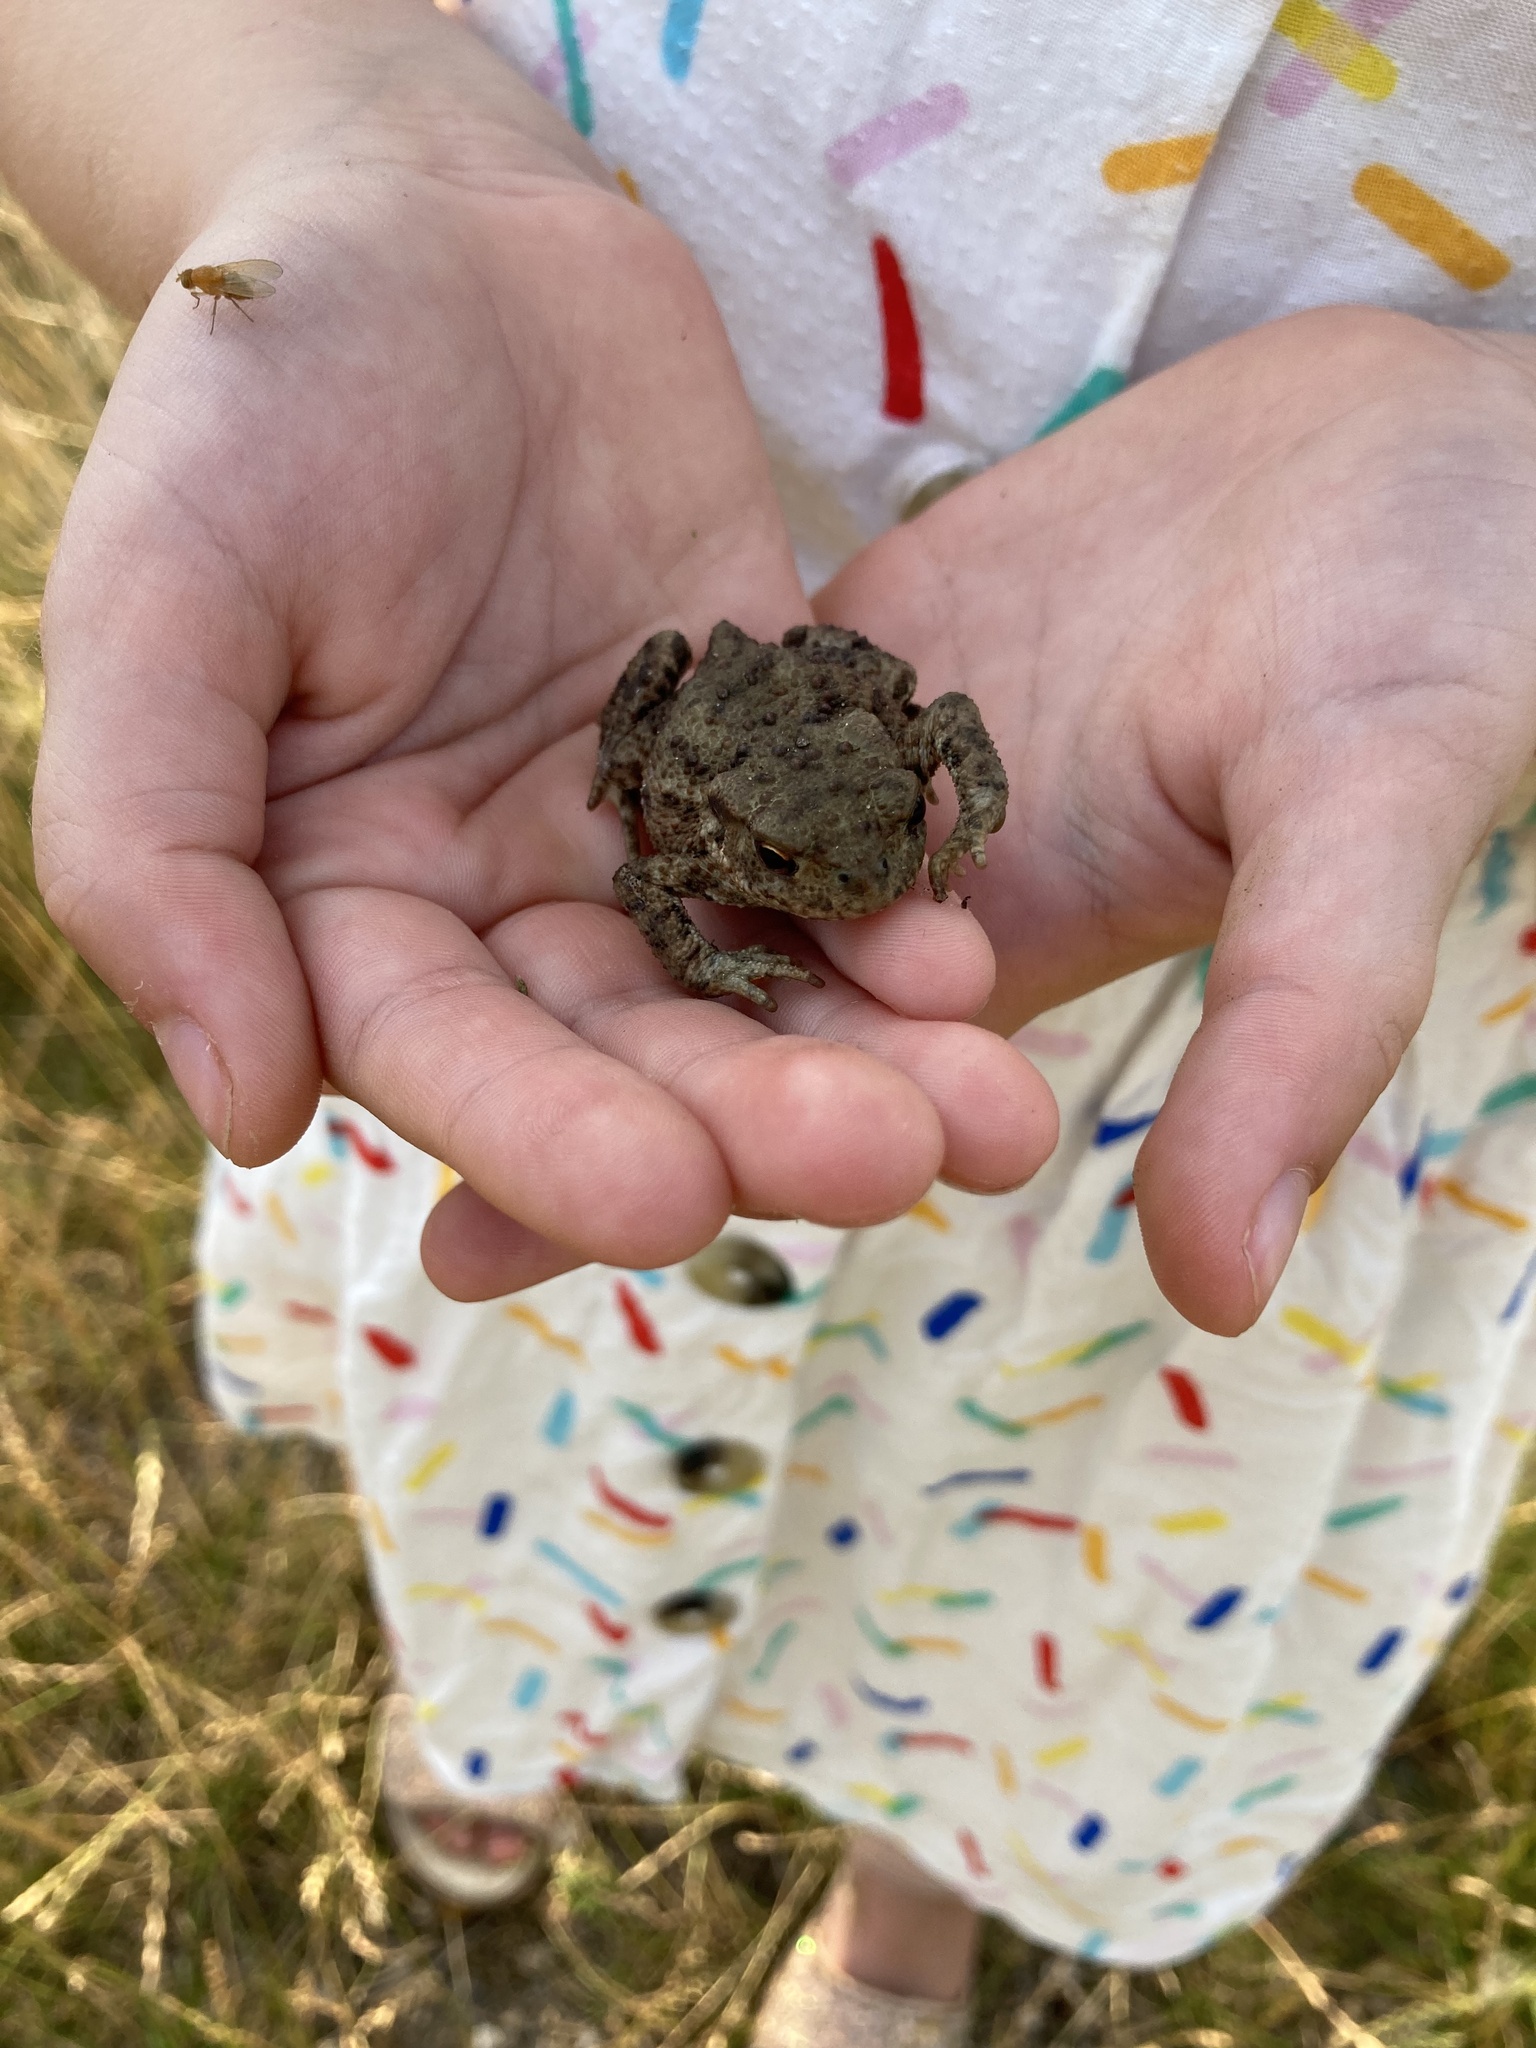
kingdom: Animalia
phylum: Chordata
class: Amphibia
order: Anura
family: Bufonidae
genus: Bufo
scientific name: Bufo bufo
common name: Common toad
